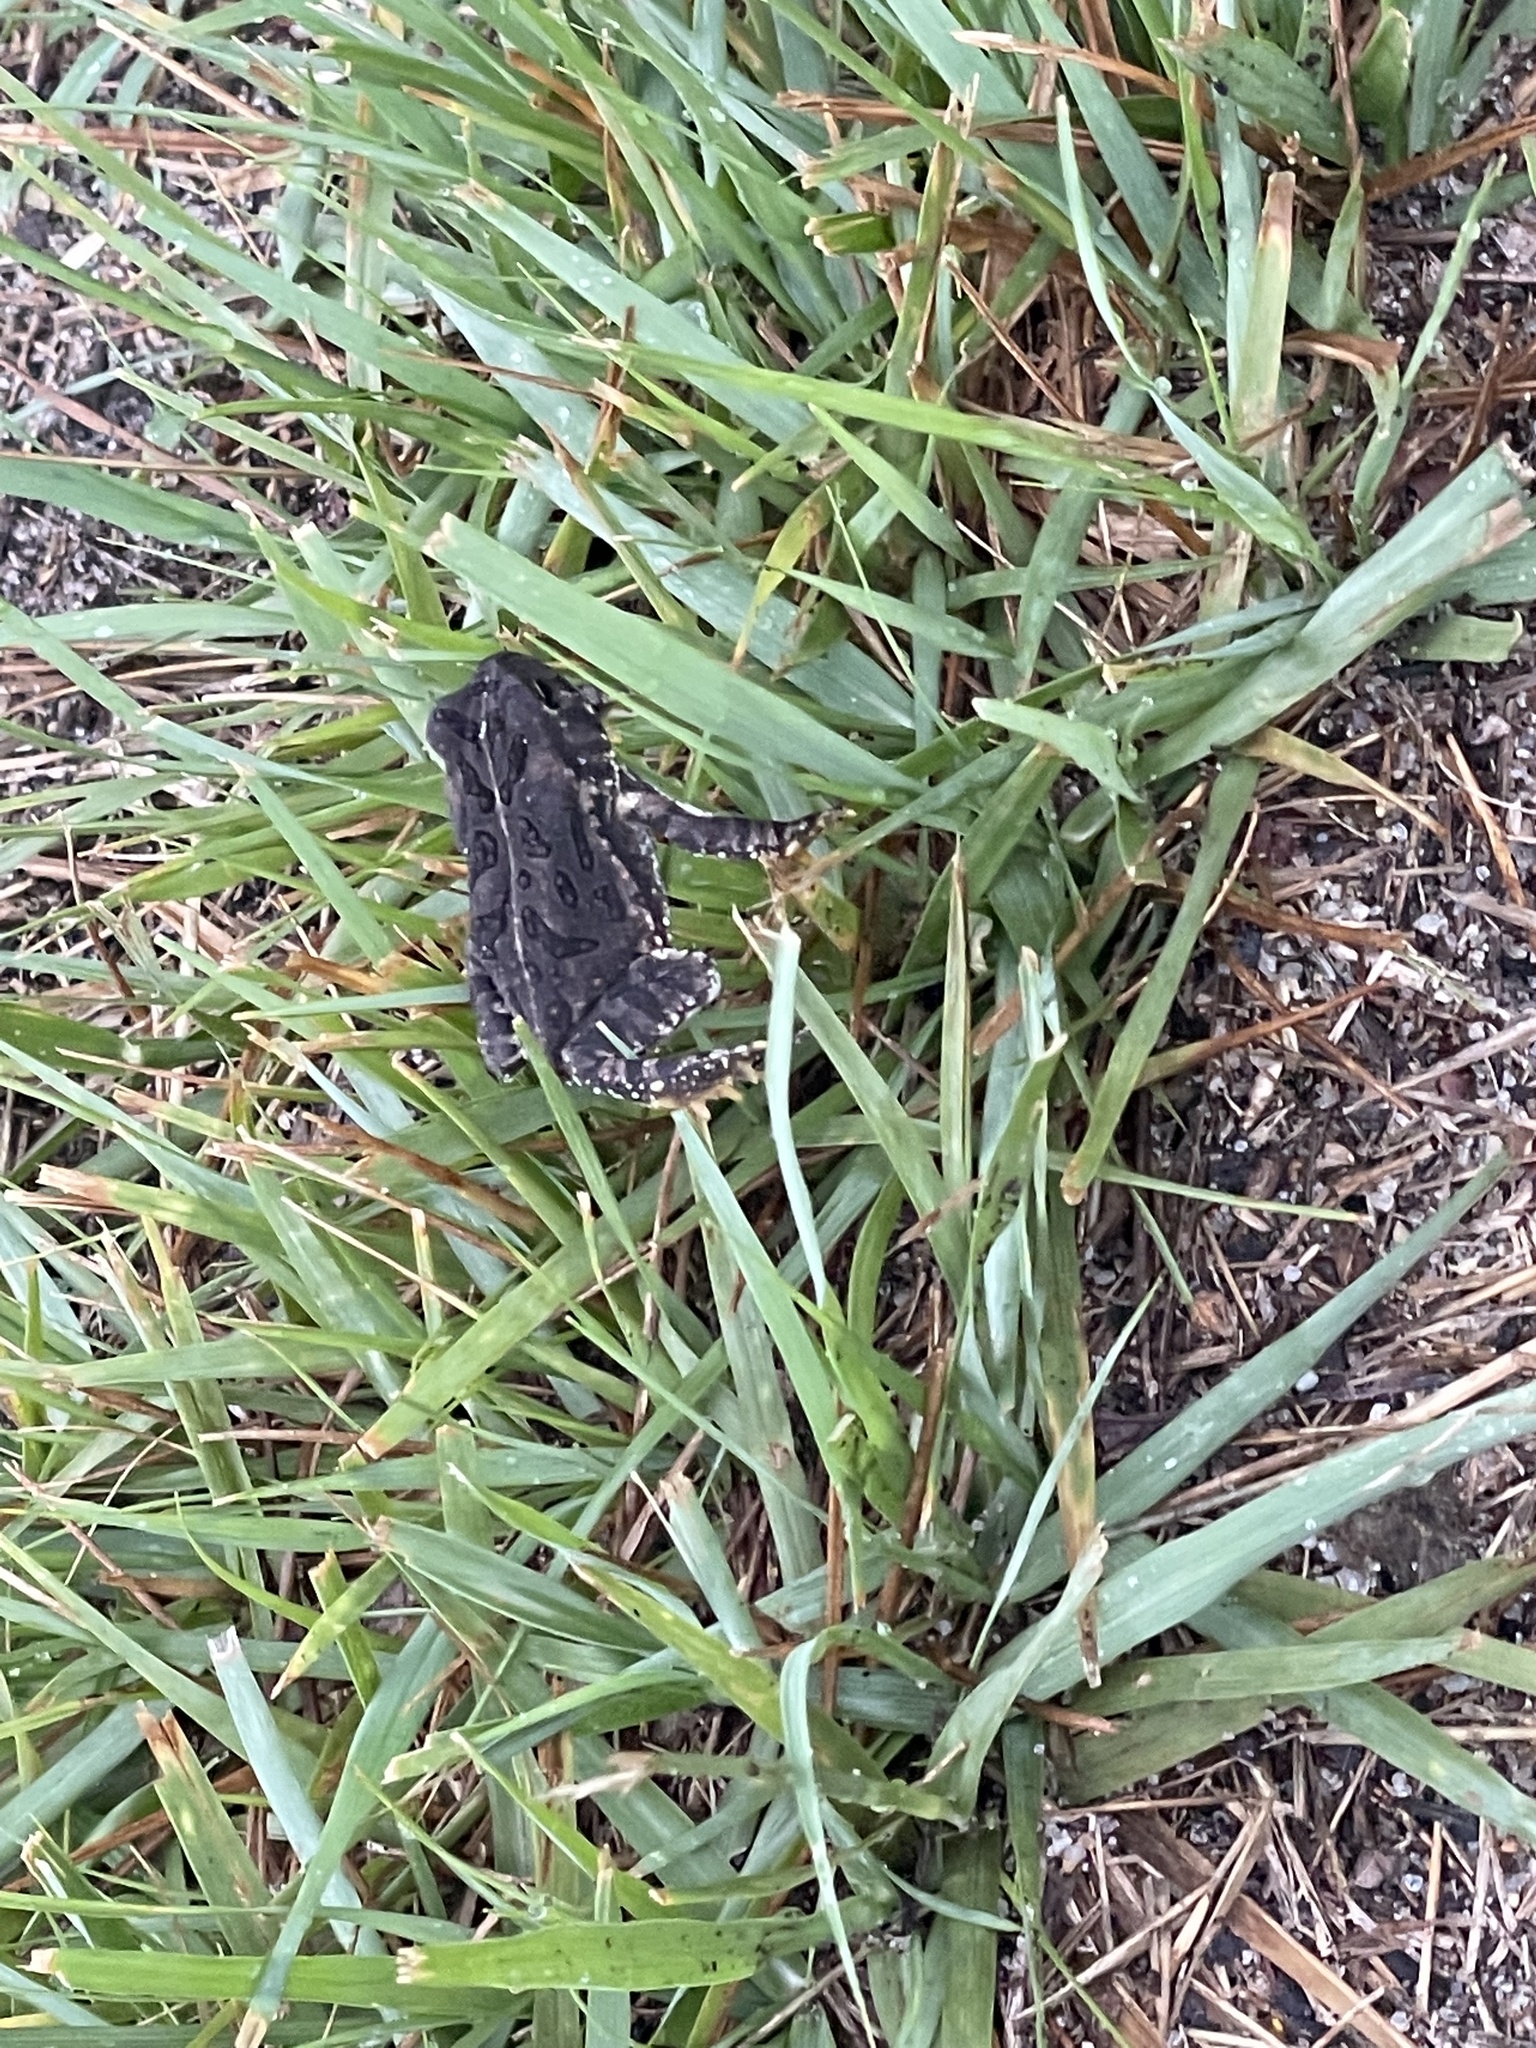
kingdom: Animalia
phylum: Chordata
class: Amphibia
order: Anura
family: Bufonidae
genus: Anaxyrus
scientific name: Anaxyrus fowleri
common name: Fowler's toad
